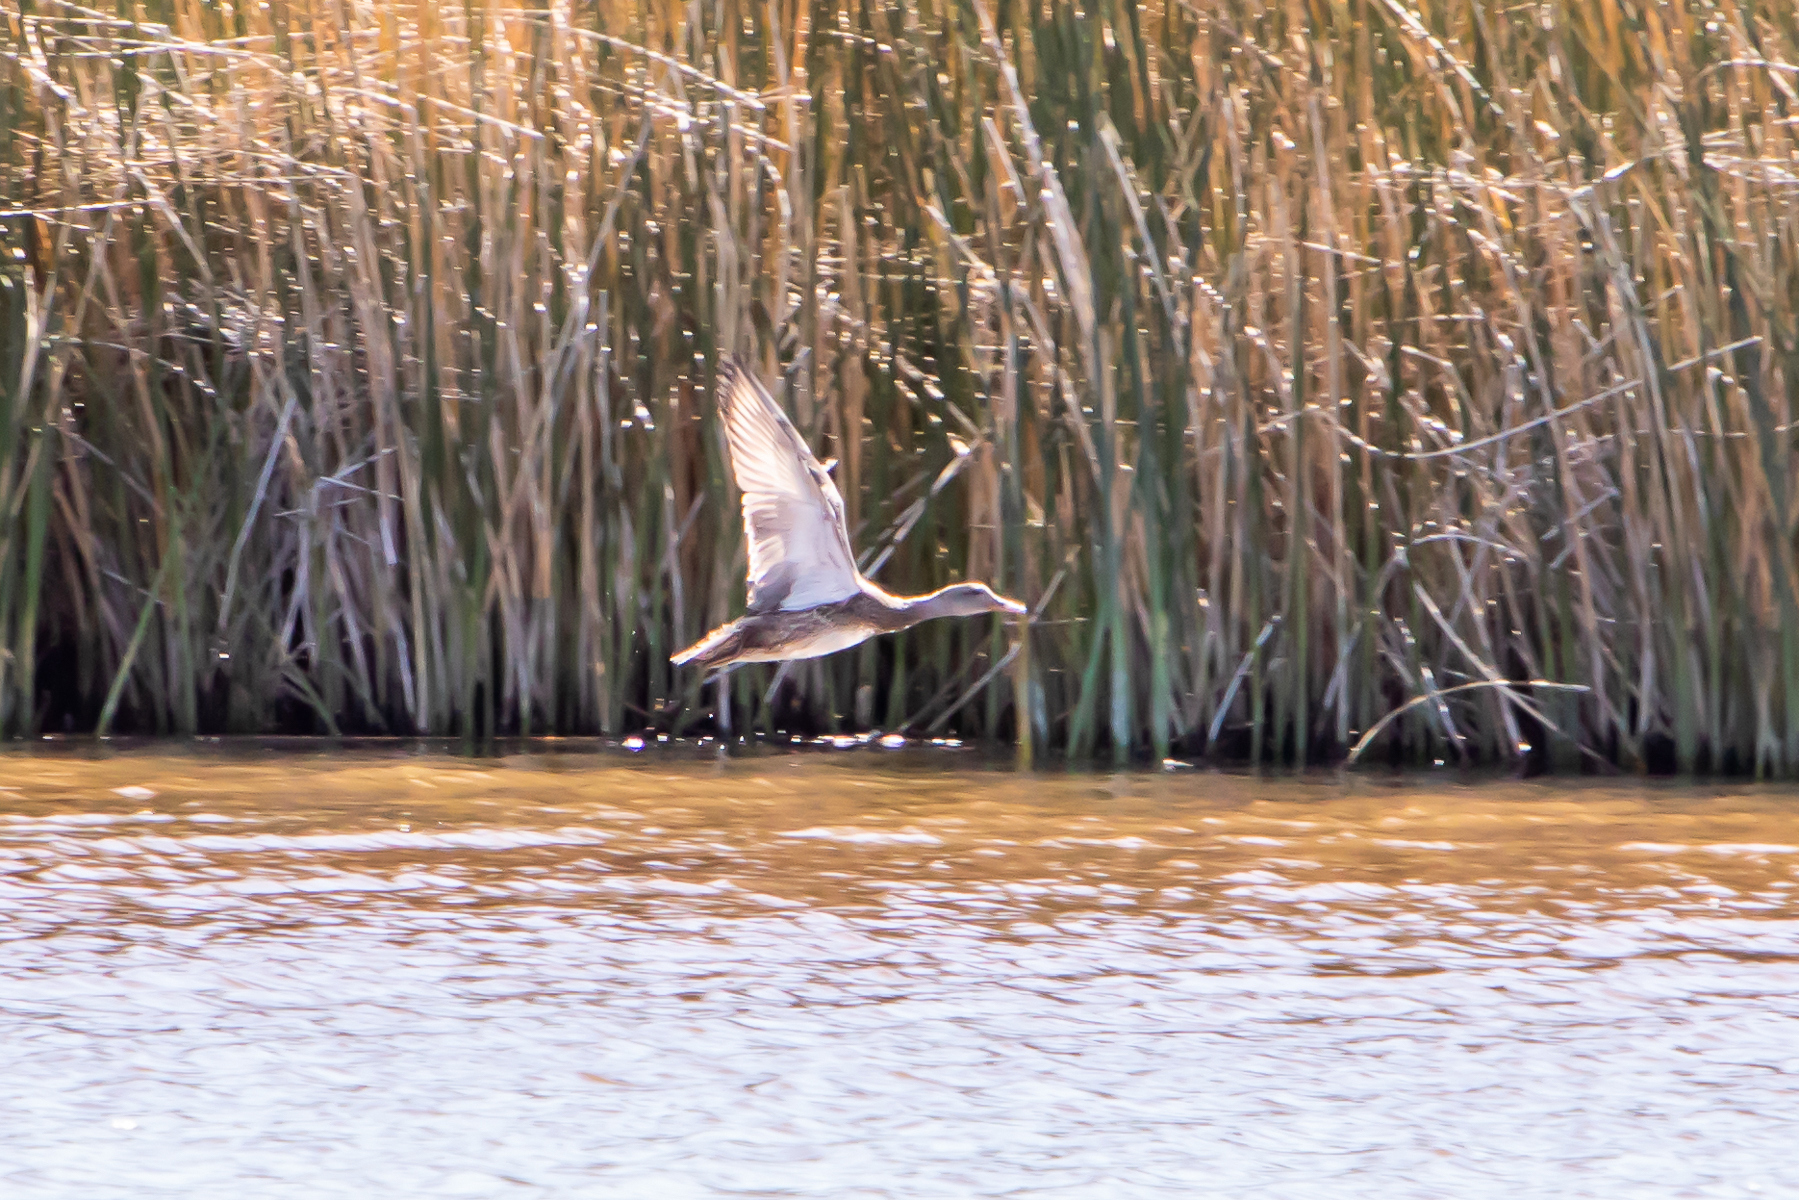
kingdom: Animalia
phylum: Chordata
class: Aves
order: Anseriformes
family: Anatidae
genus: Anas
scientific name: Anas platyrhynchos
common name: Mallard
